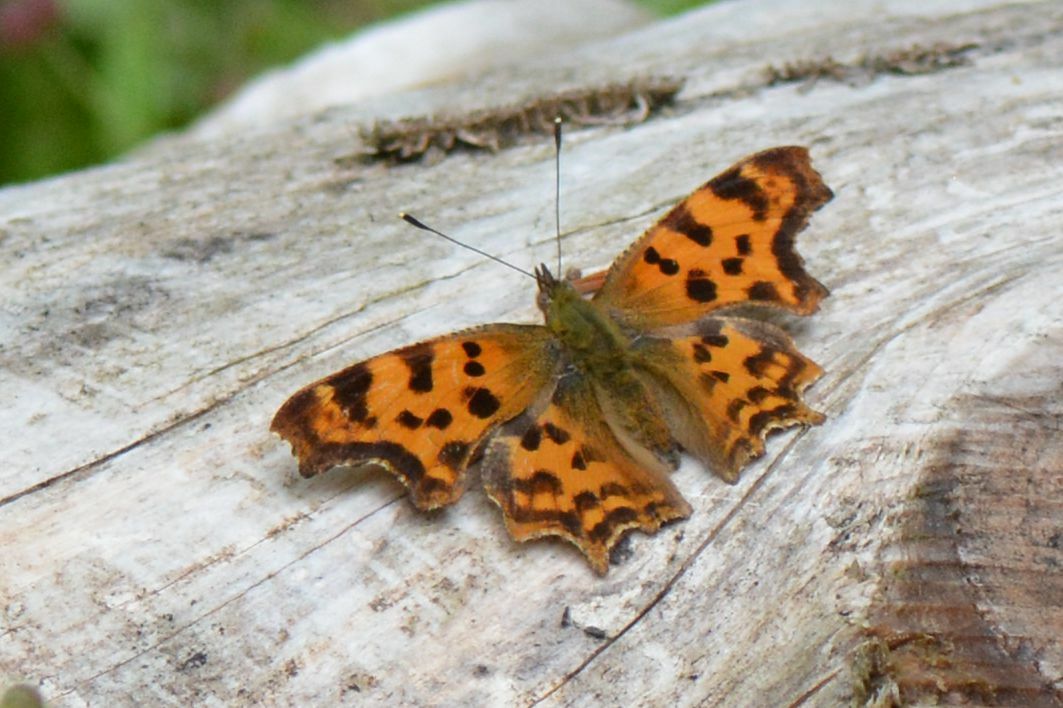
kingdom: Animalia
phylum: Arthropoda
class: Insecta
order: Lepidoptera
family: Nymphalidae
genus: Polygonia
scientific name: Polygonia c-album
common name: Comma
